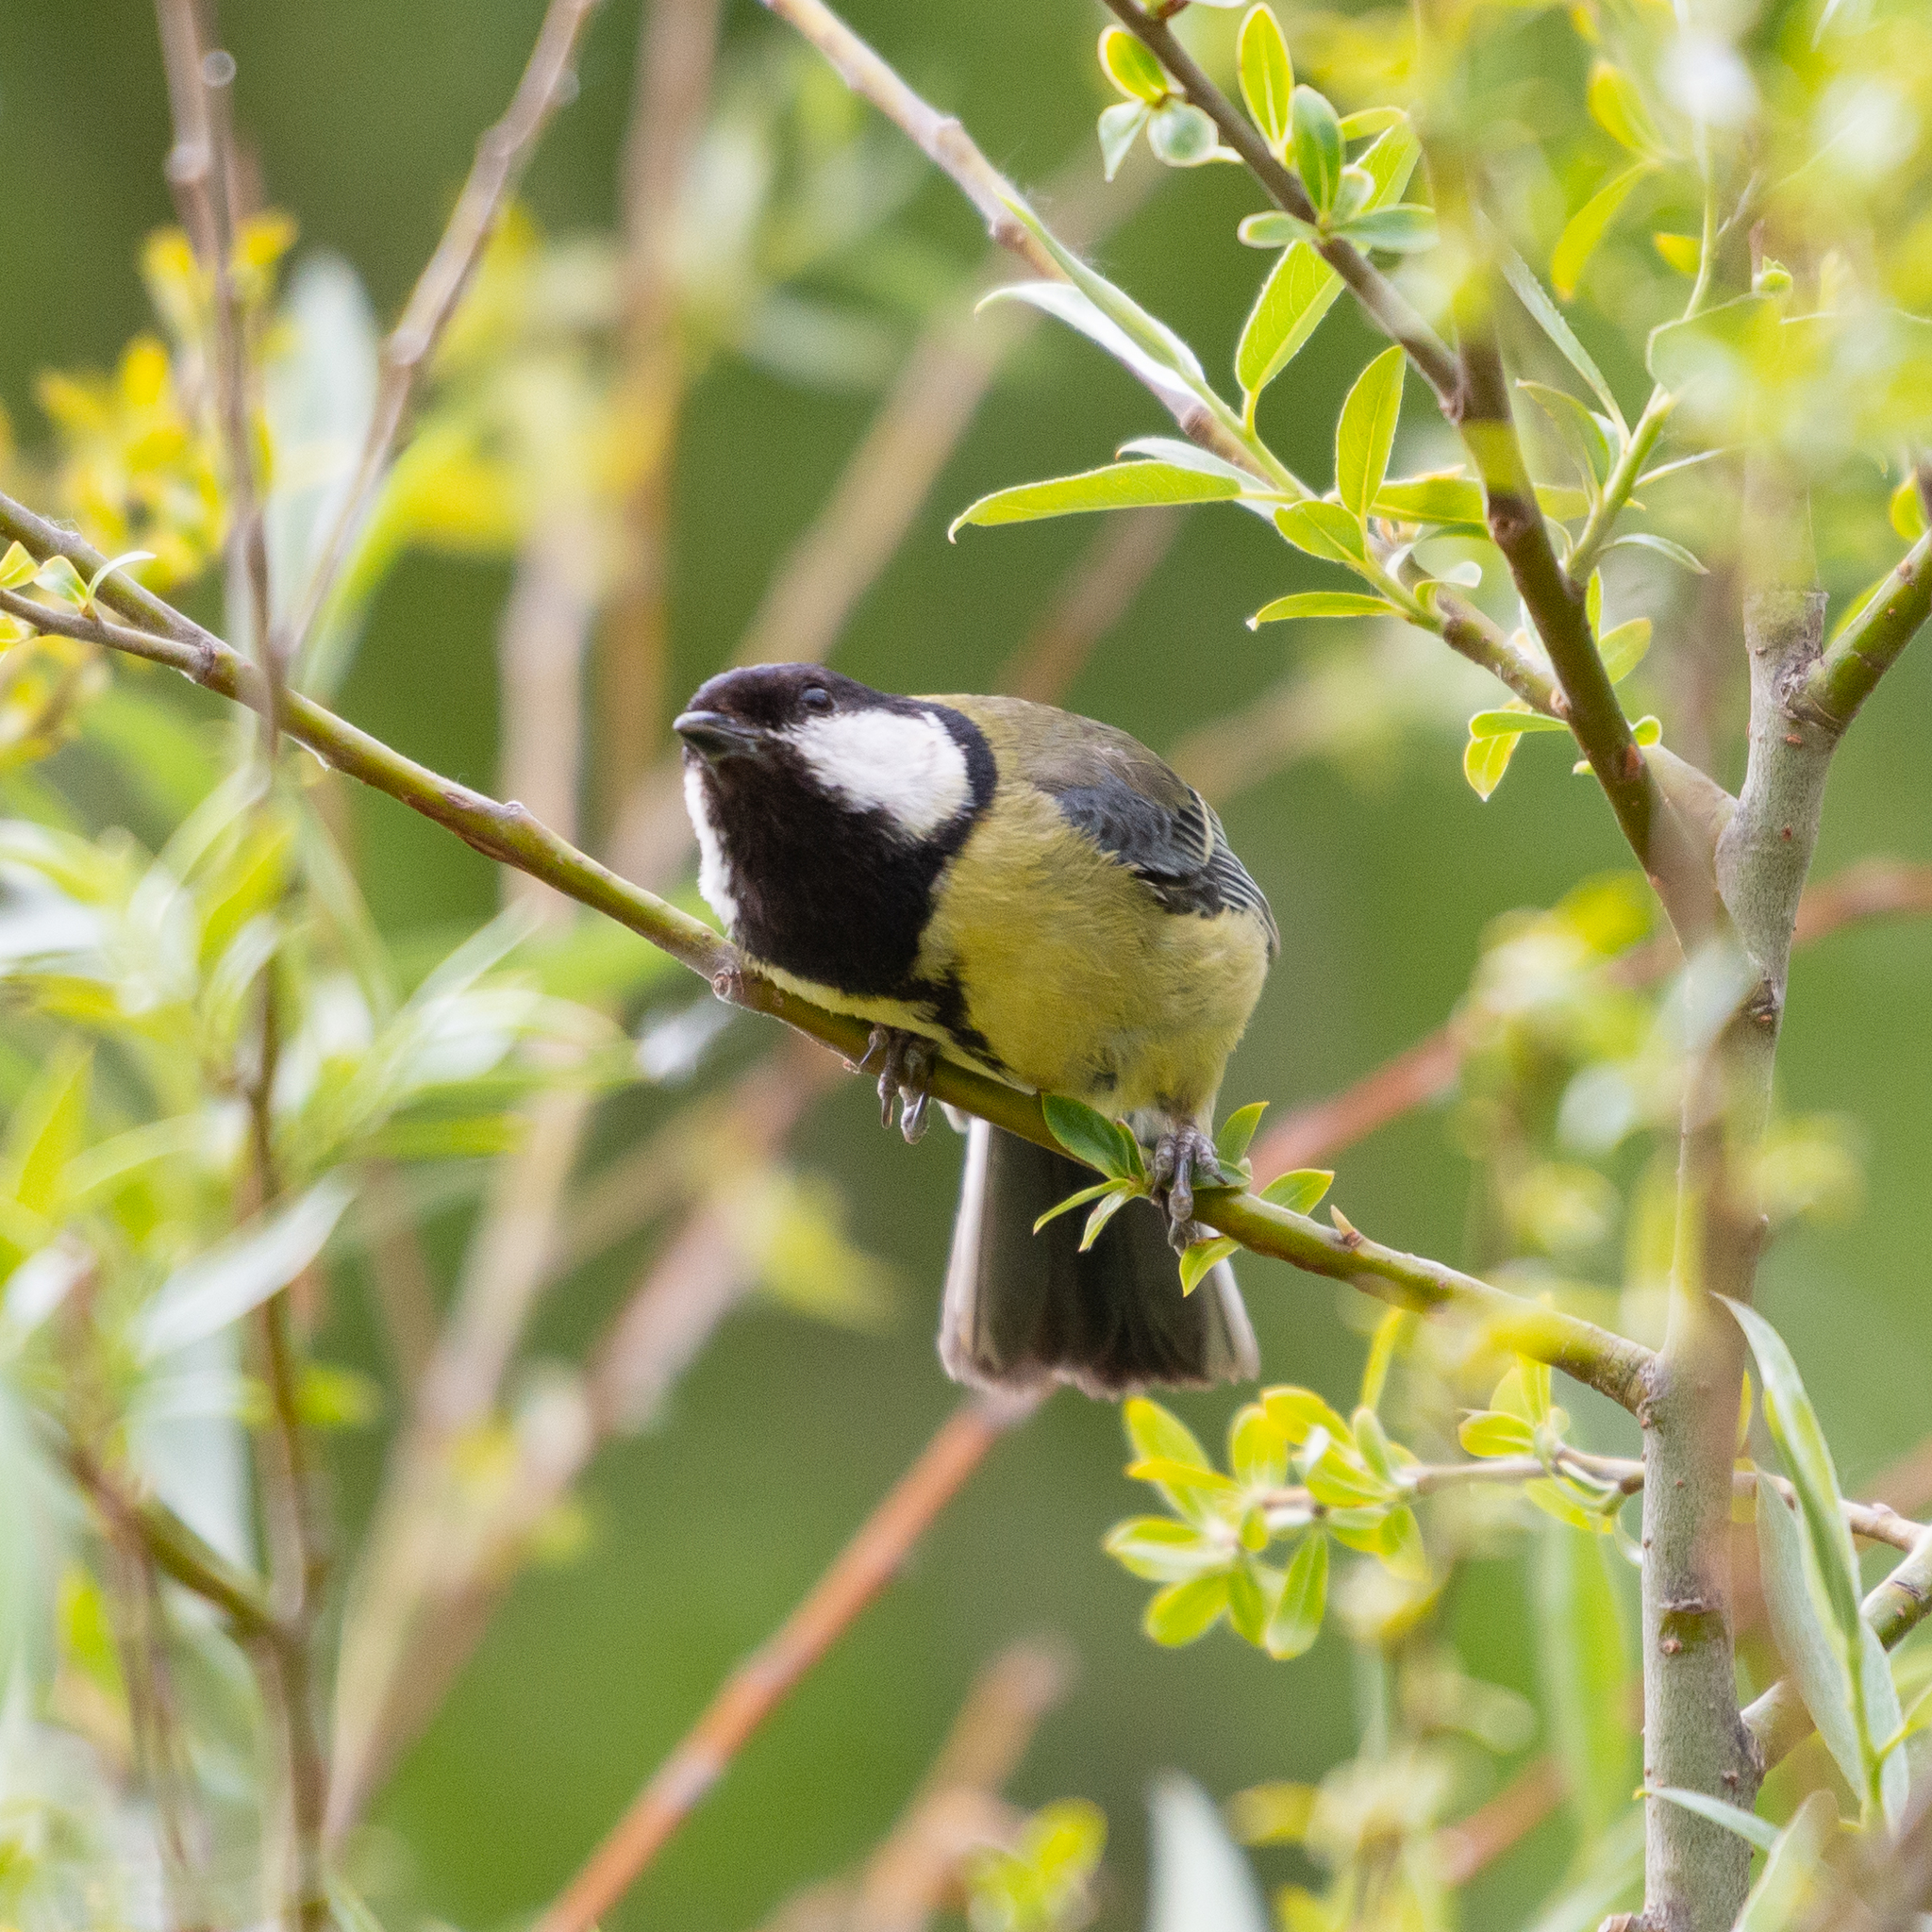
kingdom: Animalia
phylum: Chordata
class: Aves
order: Passeriformes
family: Paridae
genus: Parus
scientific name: Parus major
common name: Great tit
